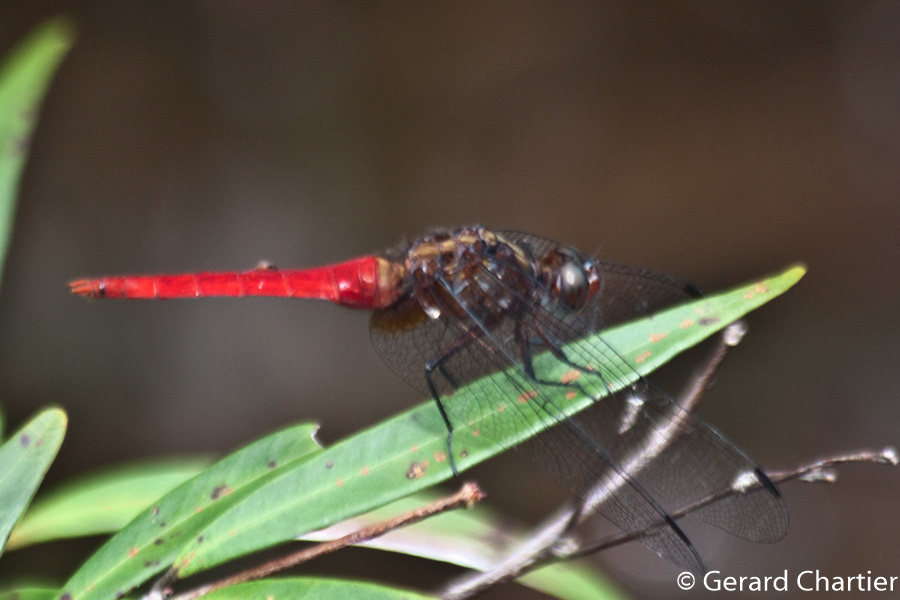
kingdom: Animalia
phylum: Arthropoda
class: Insecta
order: Odonata
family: Libellulidae
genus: Orthetrum
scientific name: Orthetrum chrysis
